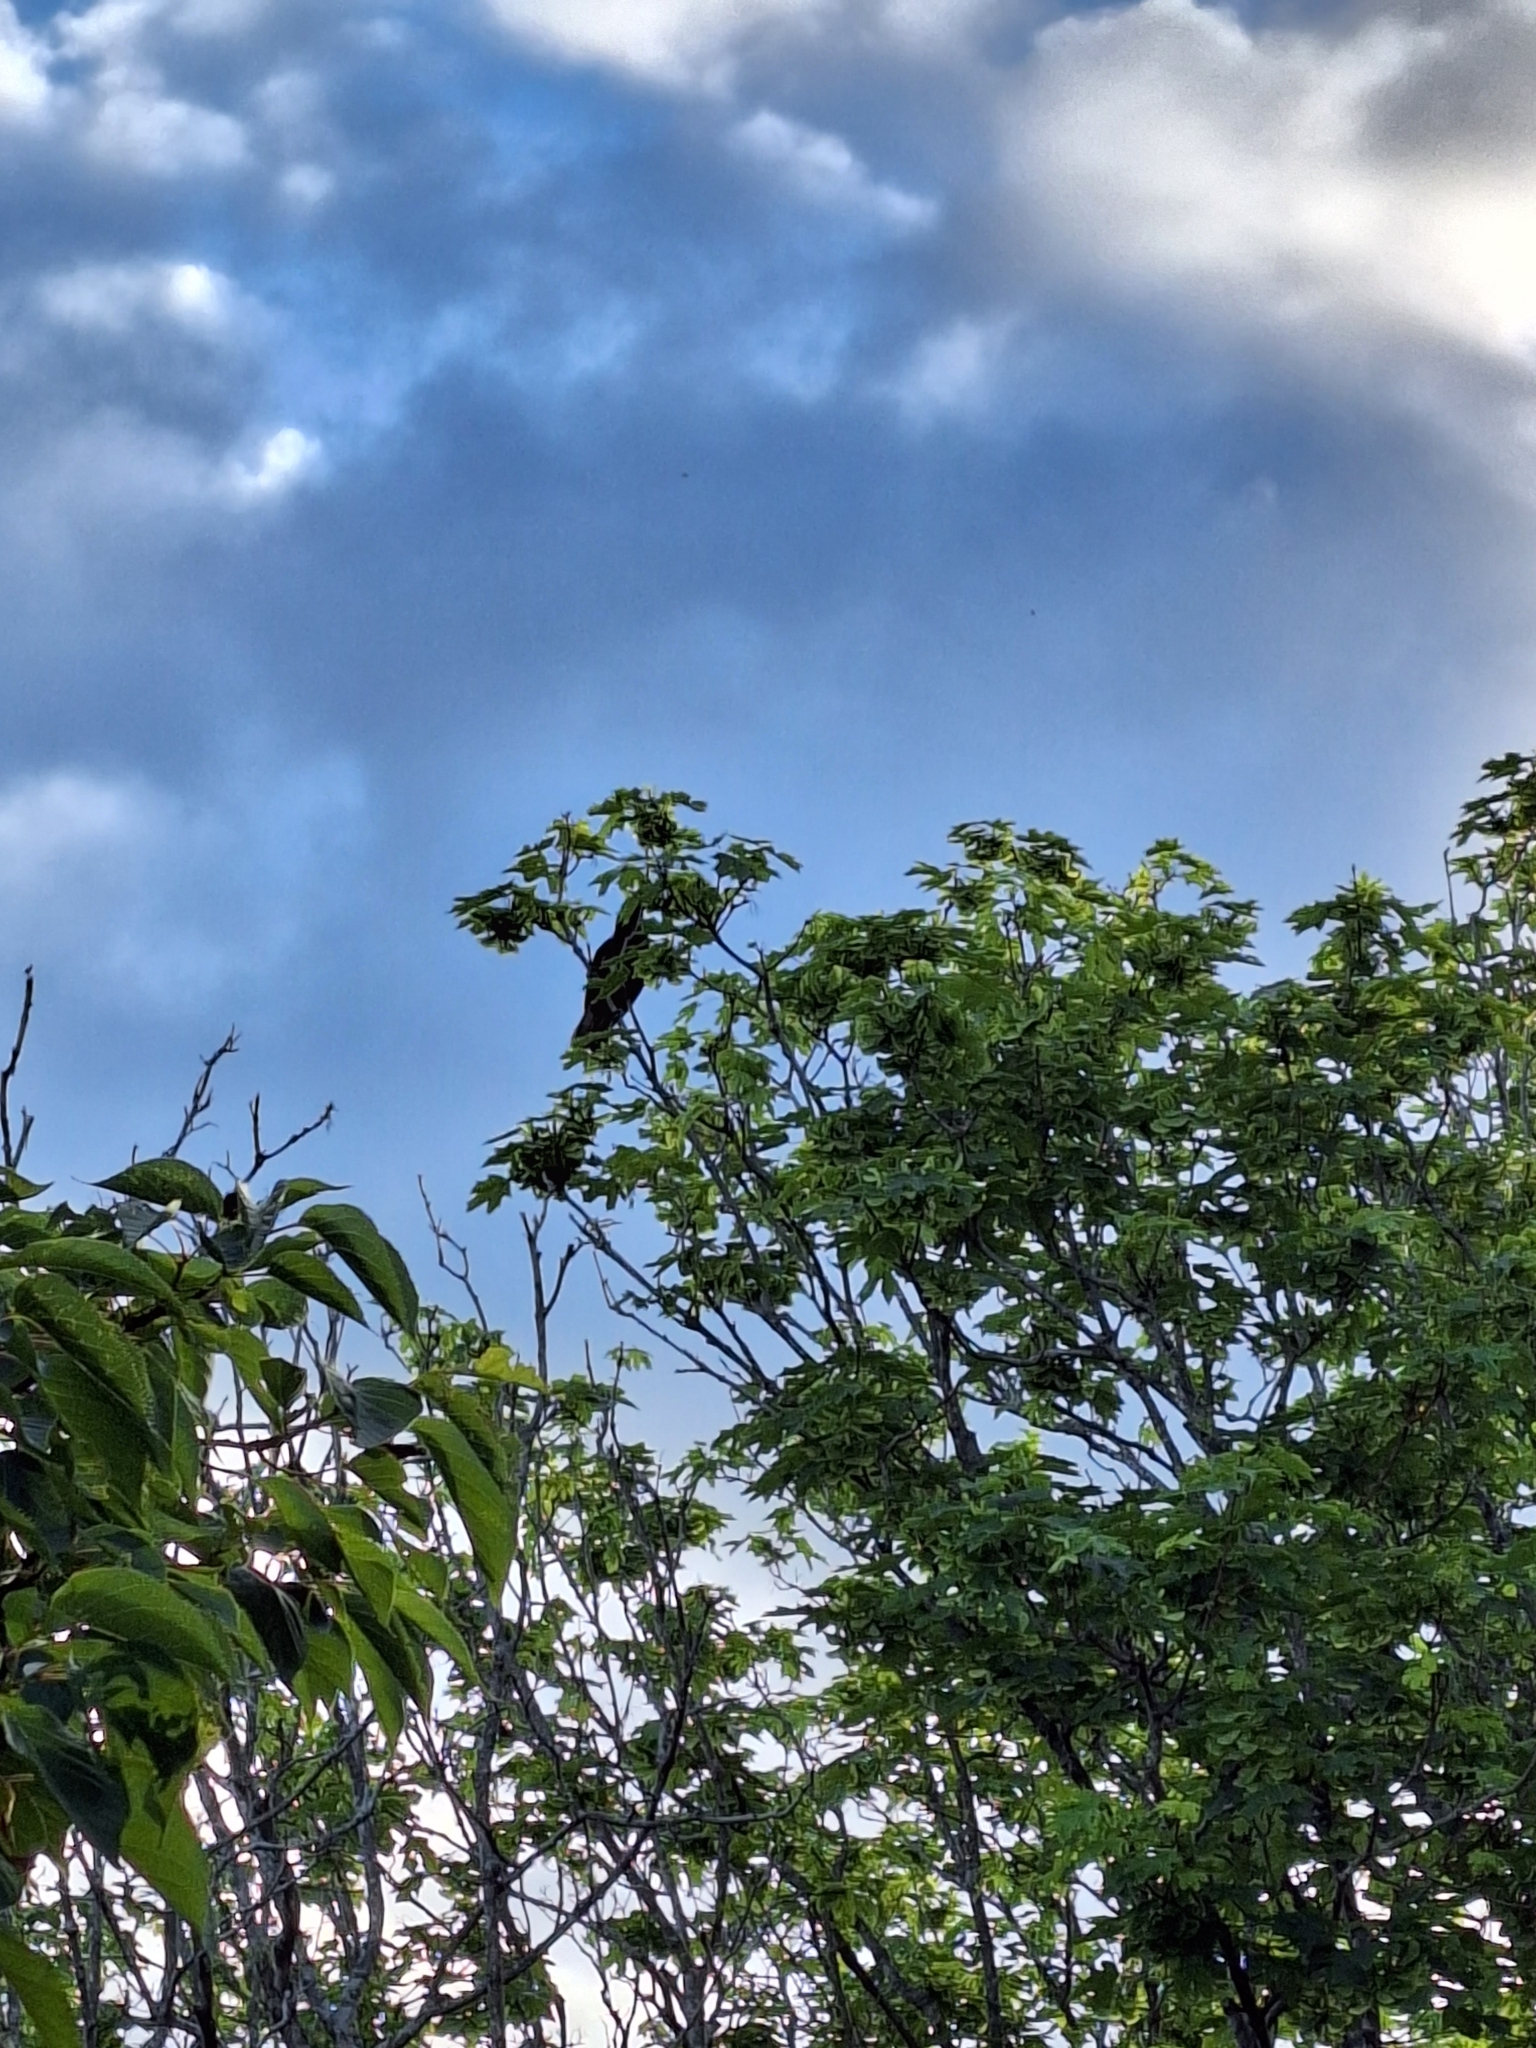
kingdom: Animalia
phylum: Chordata
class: Aves
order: Psittaciformes
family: Psittacidae
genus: Nestor
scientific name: Nestor meridionalis
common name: New zealand kaka
